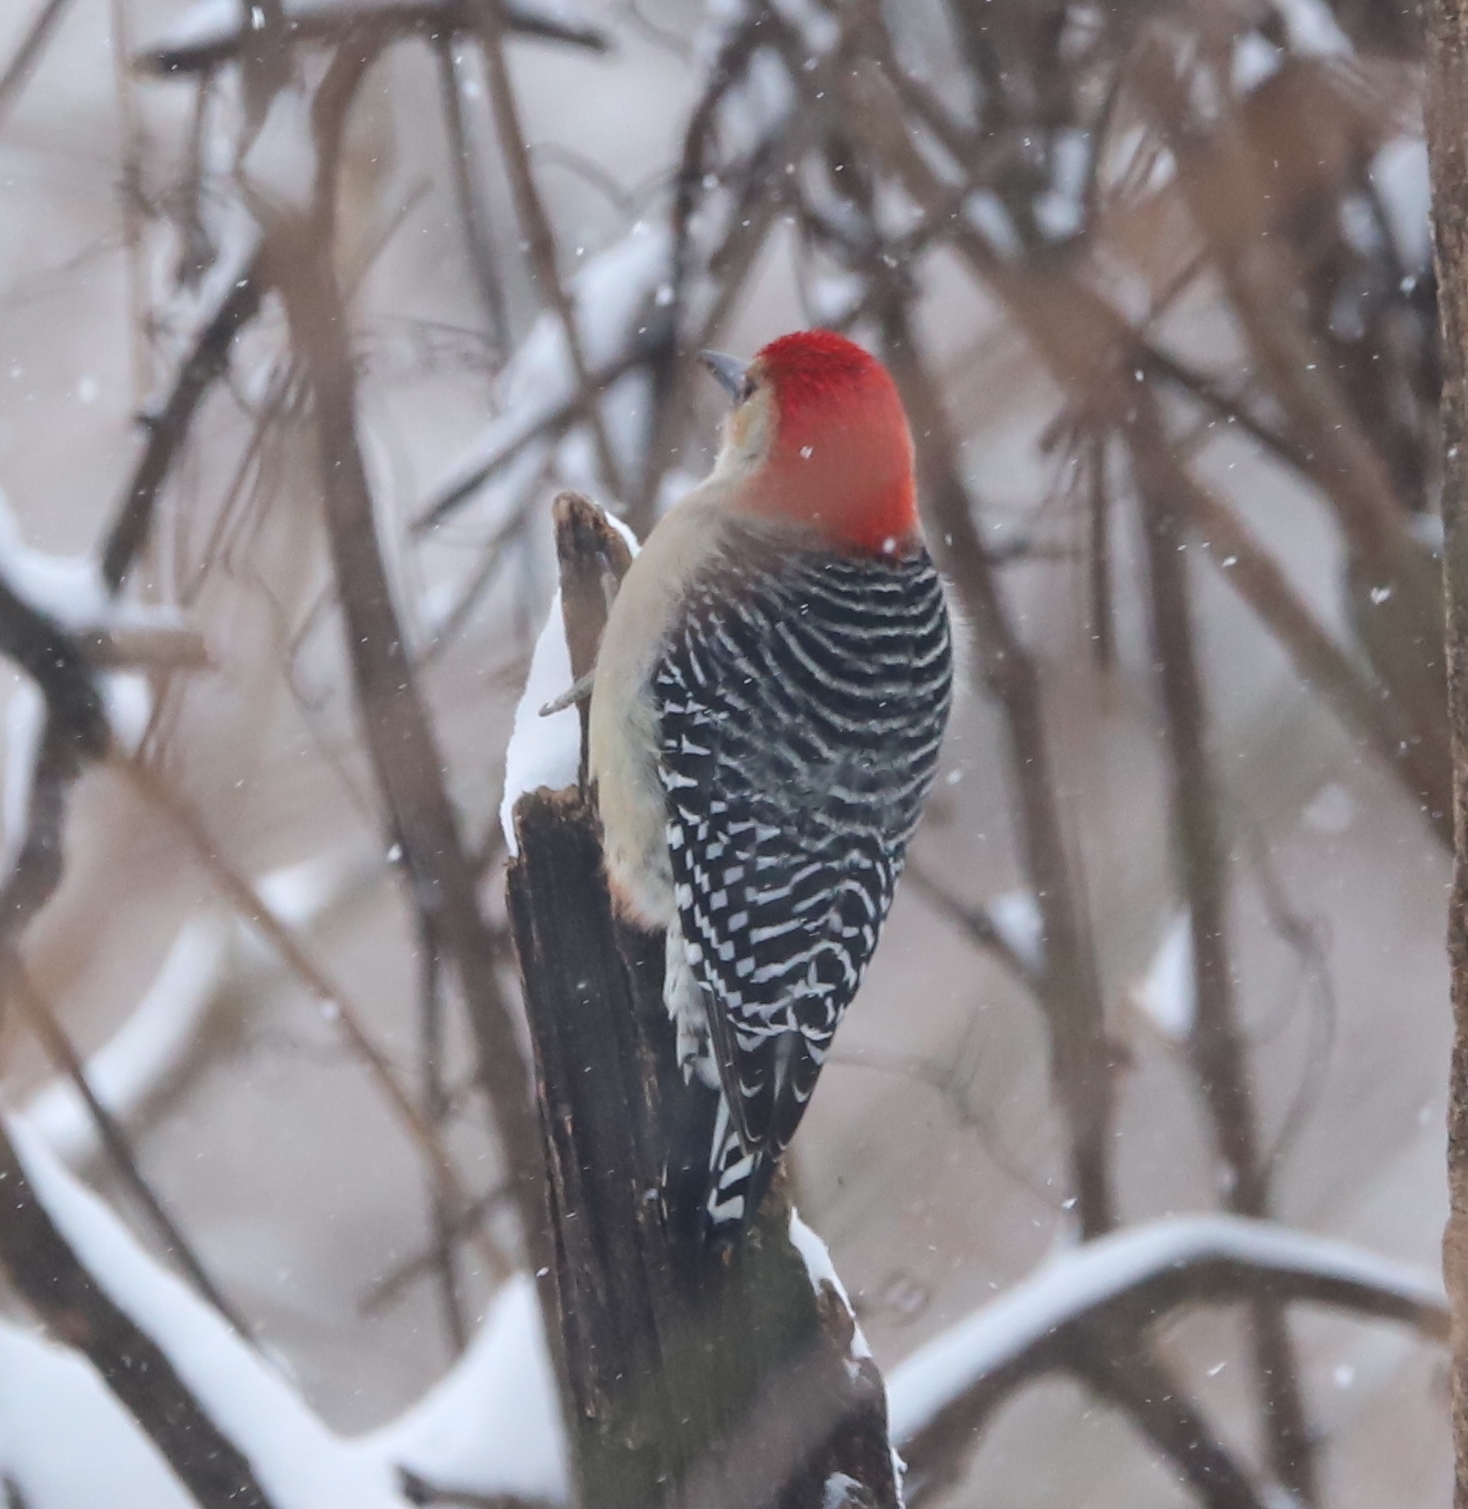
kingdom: Animalia
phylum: Chordata
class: Aves
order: Piciformes
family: Picidae
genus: Melanerpes
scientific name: Melanerpes carolinus
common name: Red-bellied woodpecker
